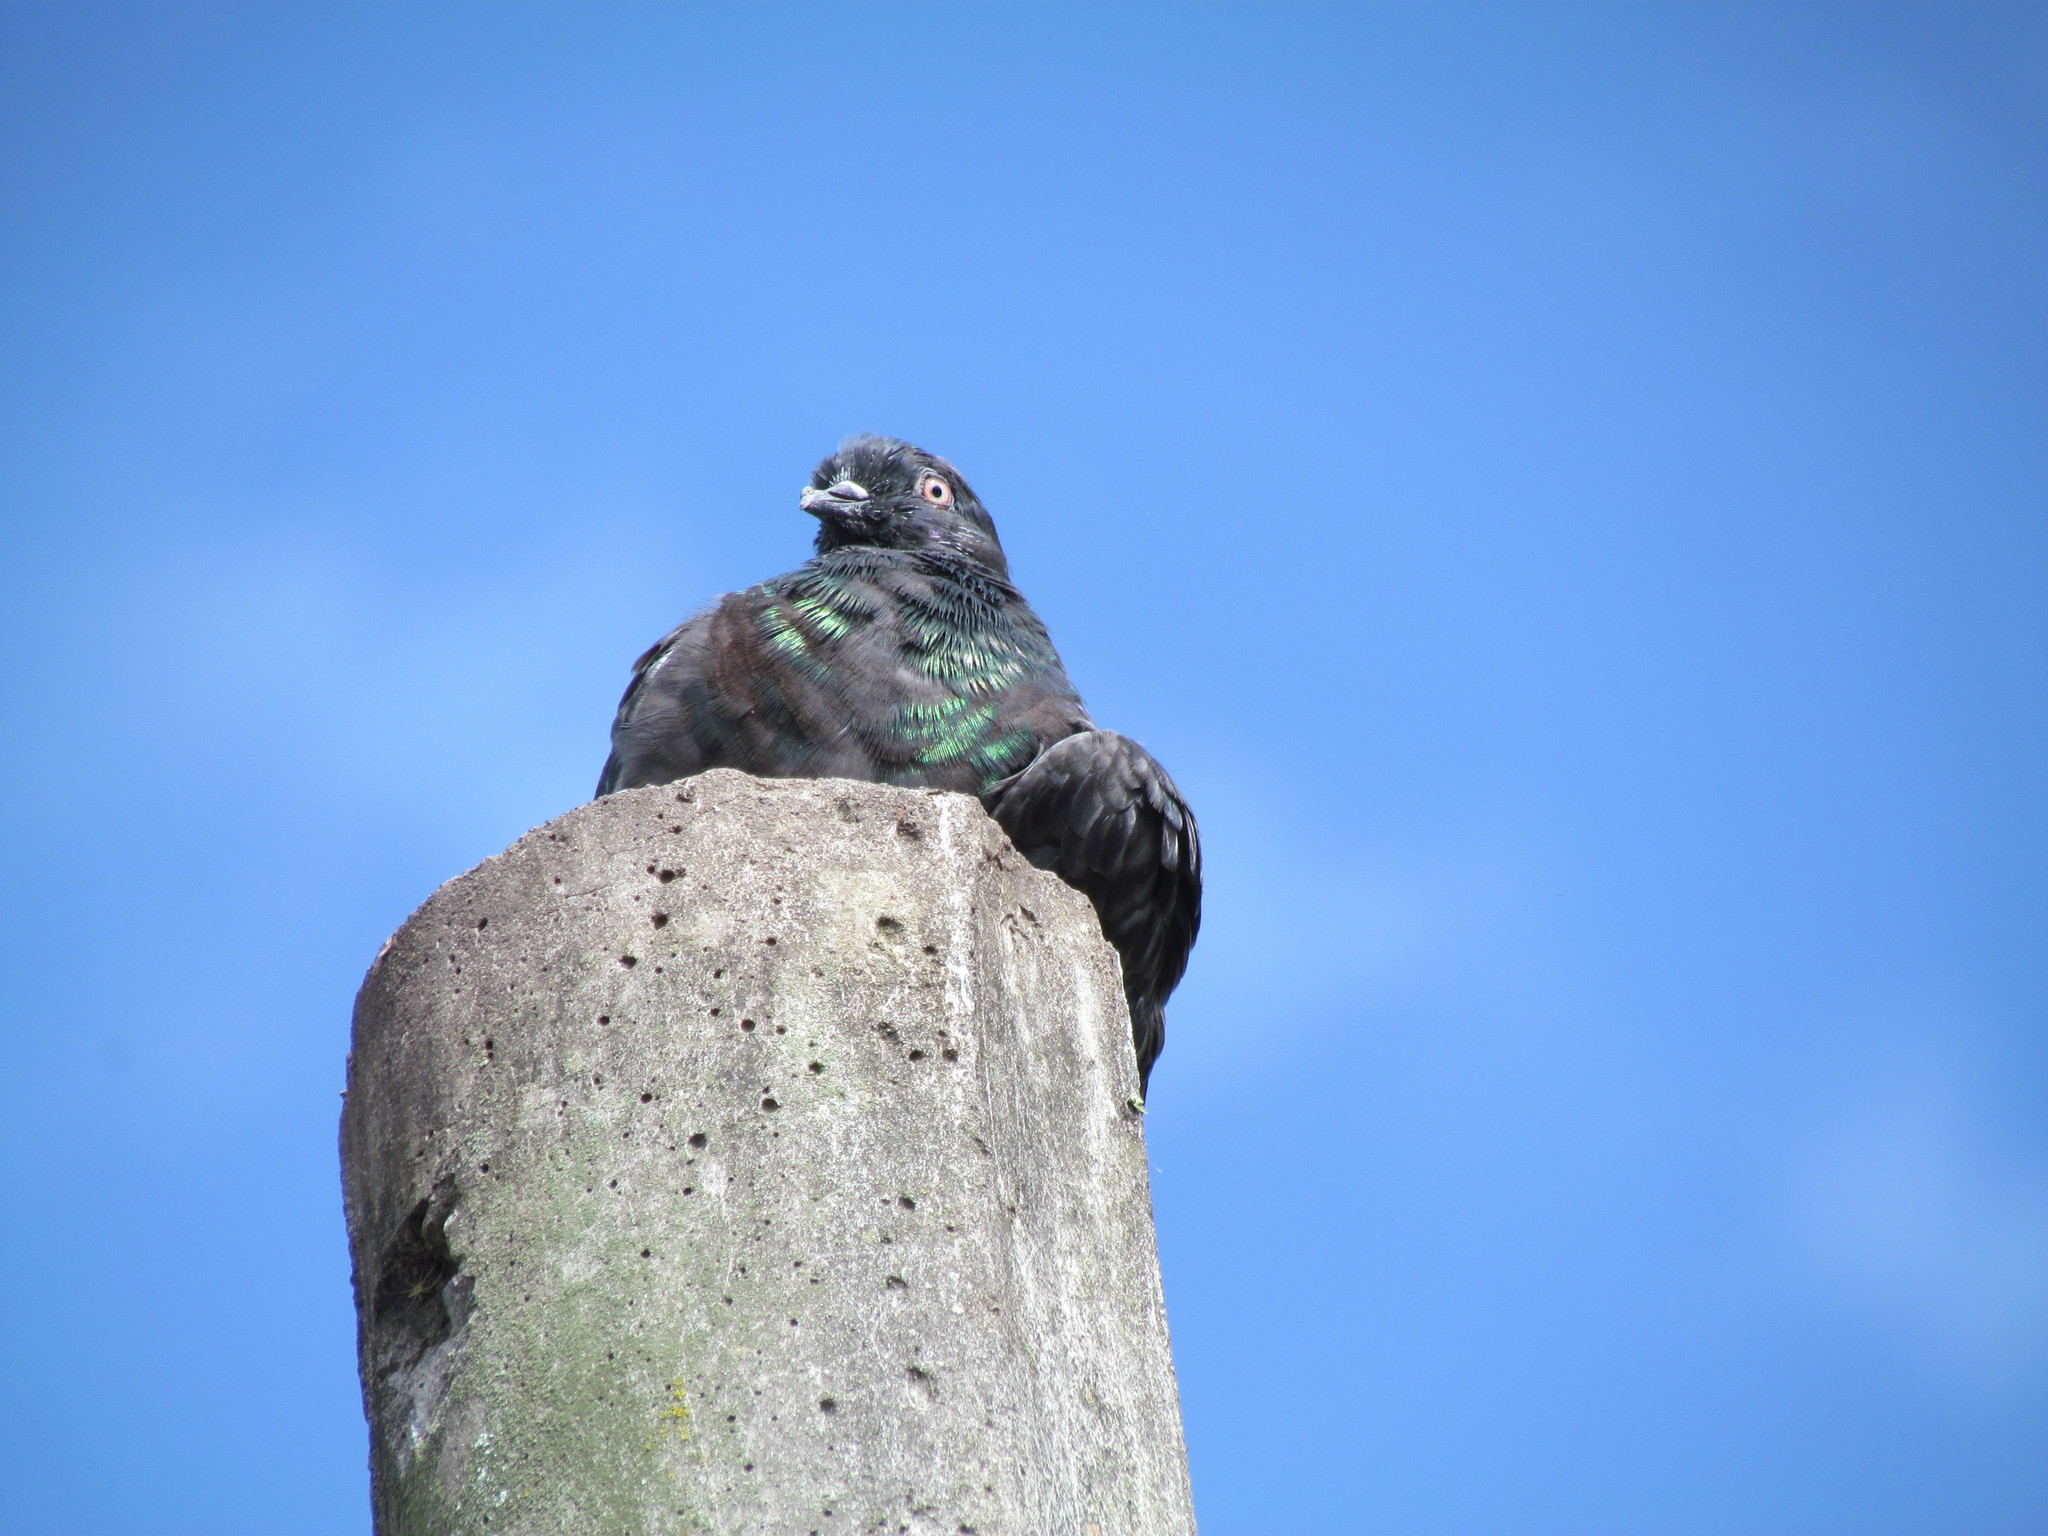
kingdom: Animalia
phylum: Chordata
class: Aves
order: Columbiformes
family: Columbidae
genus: Columba
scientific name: Columba livia
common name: Rock pigeon
